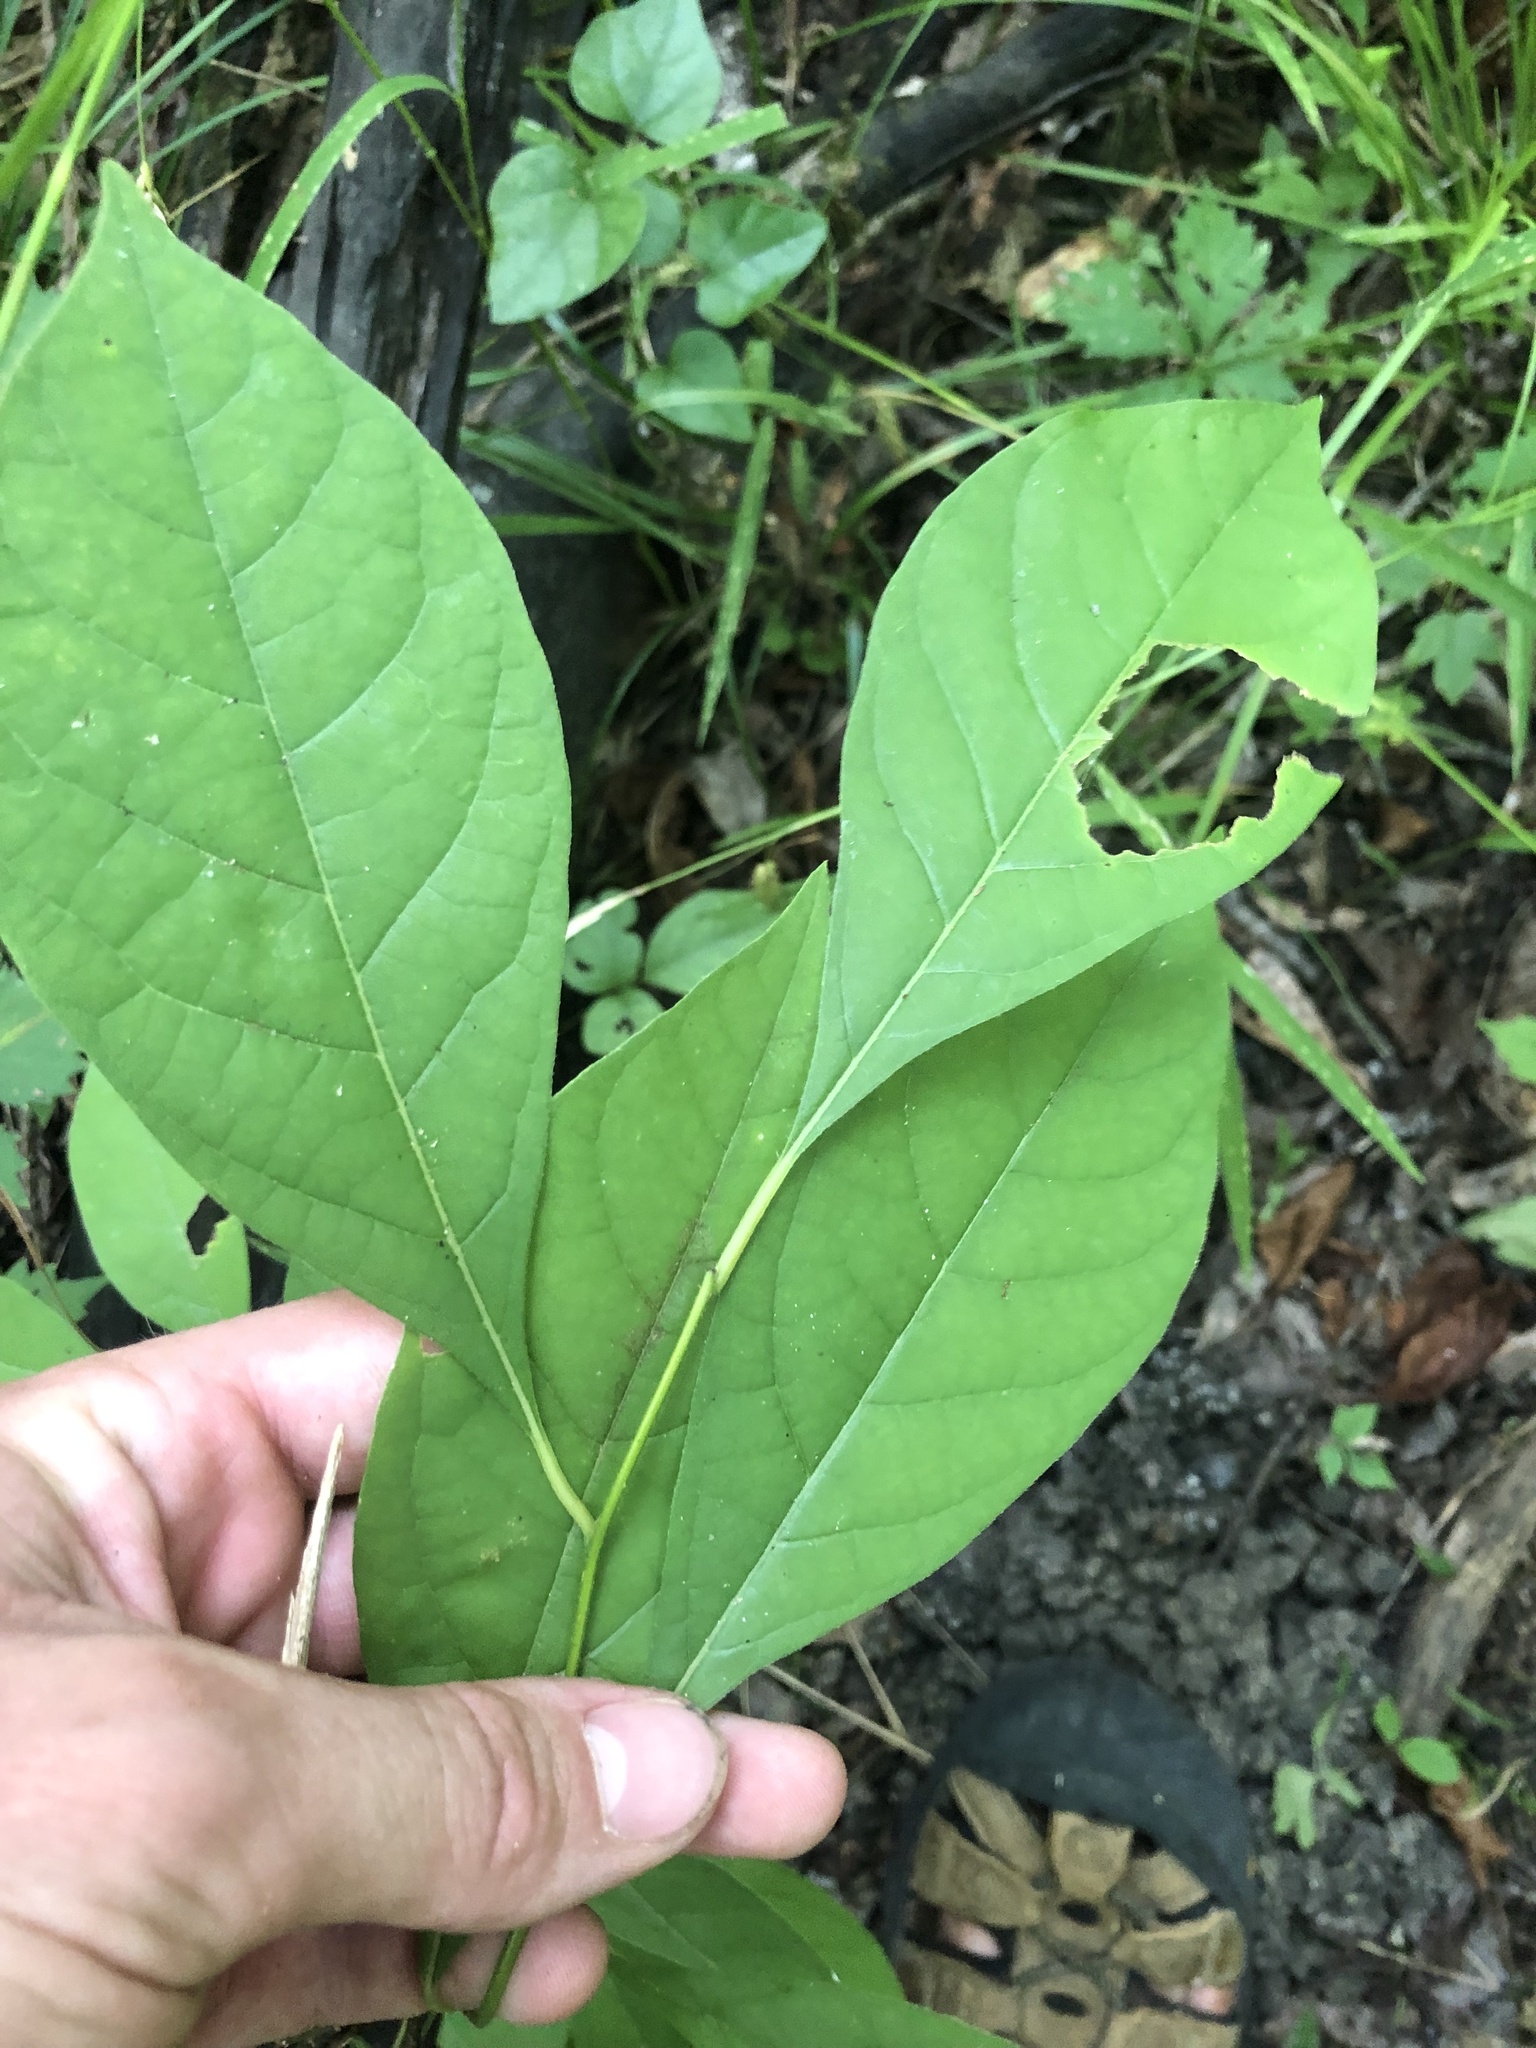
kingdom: Plantae
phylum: Tracheophyta
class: Magnoliopsida
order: Laurales
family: Lauraceae
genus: Lindera
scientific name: Lindera benzoin
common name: Spicebush
